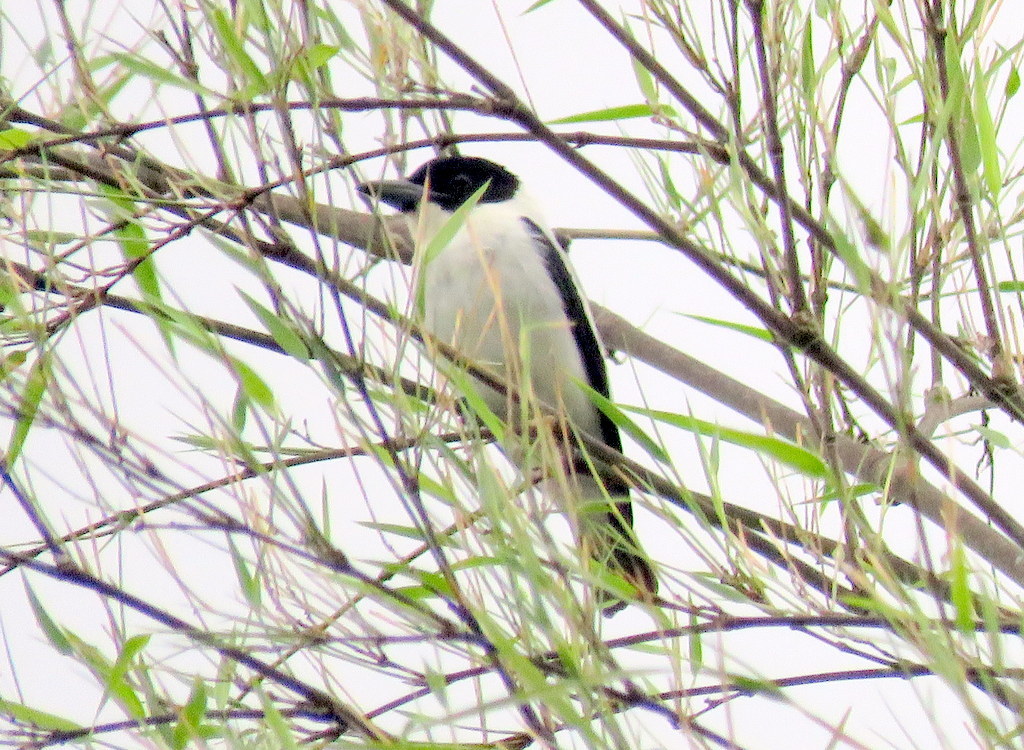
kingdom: Animalia
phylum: Chordata
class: Aves
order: Passeriformes
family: Cotingidae
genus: Tityra
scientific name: Tityra inquisitor
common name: Black-crowned tityra
